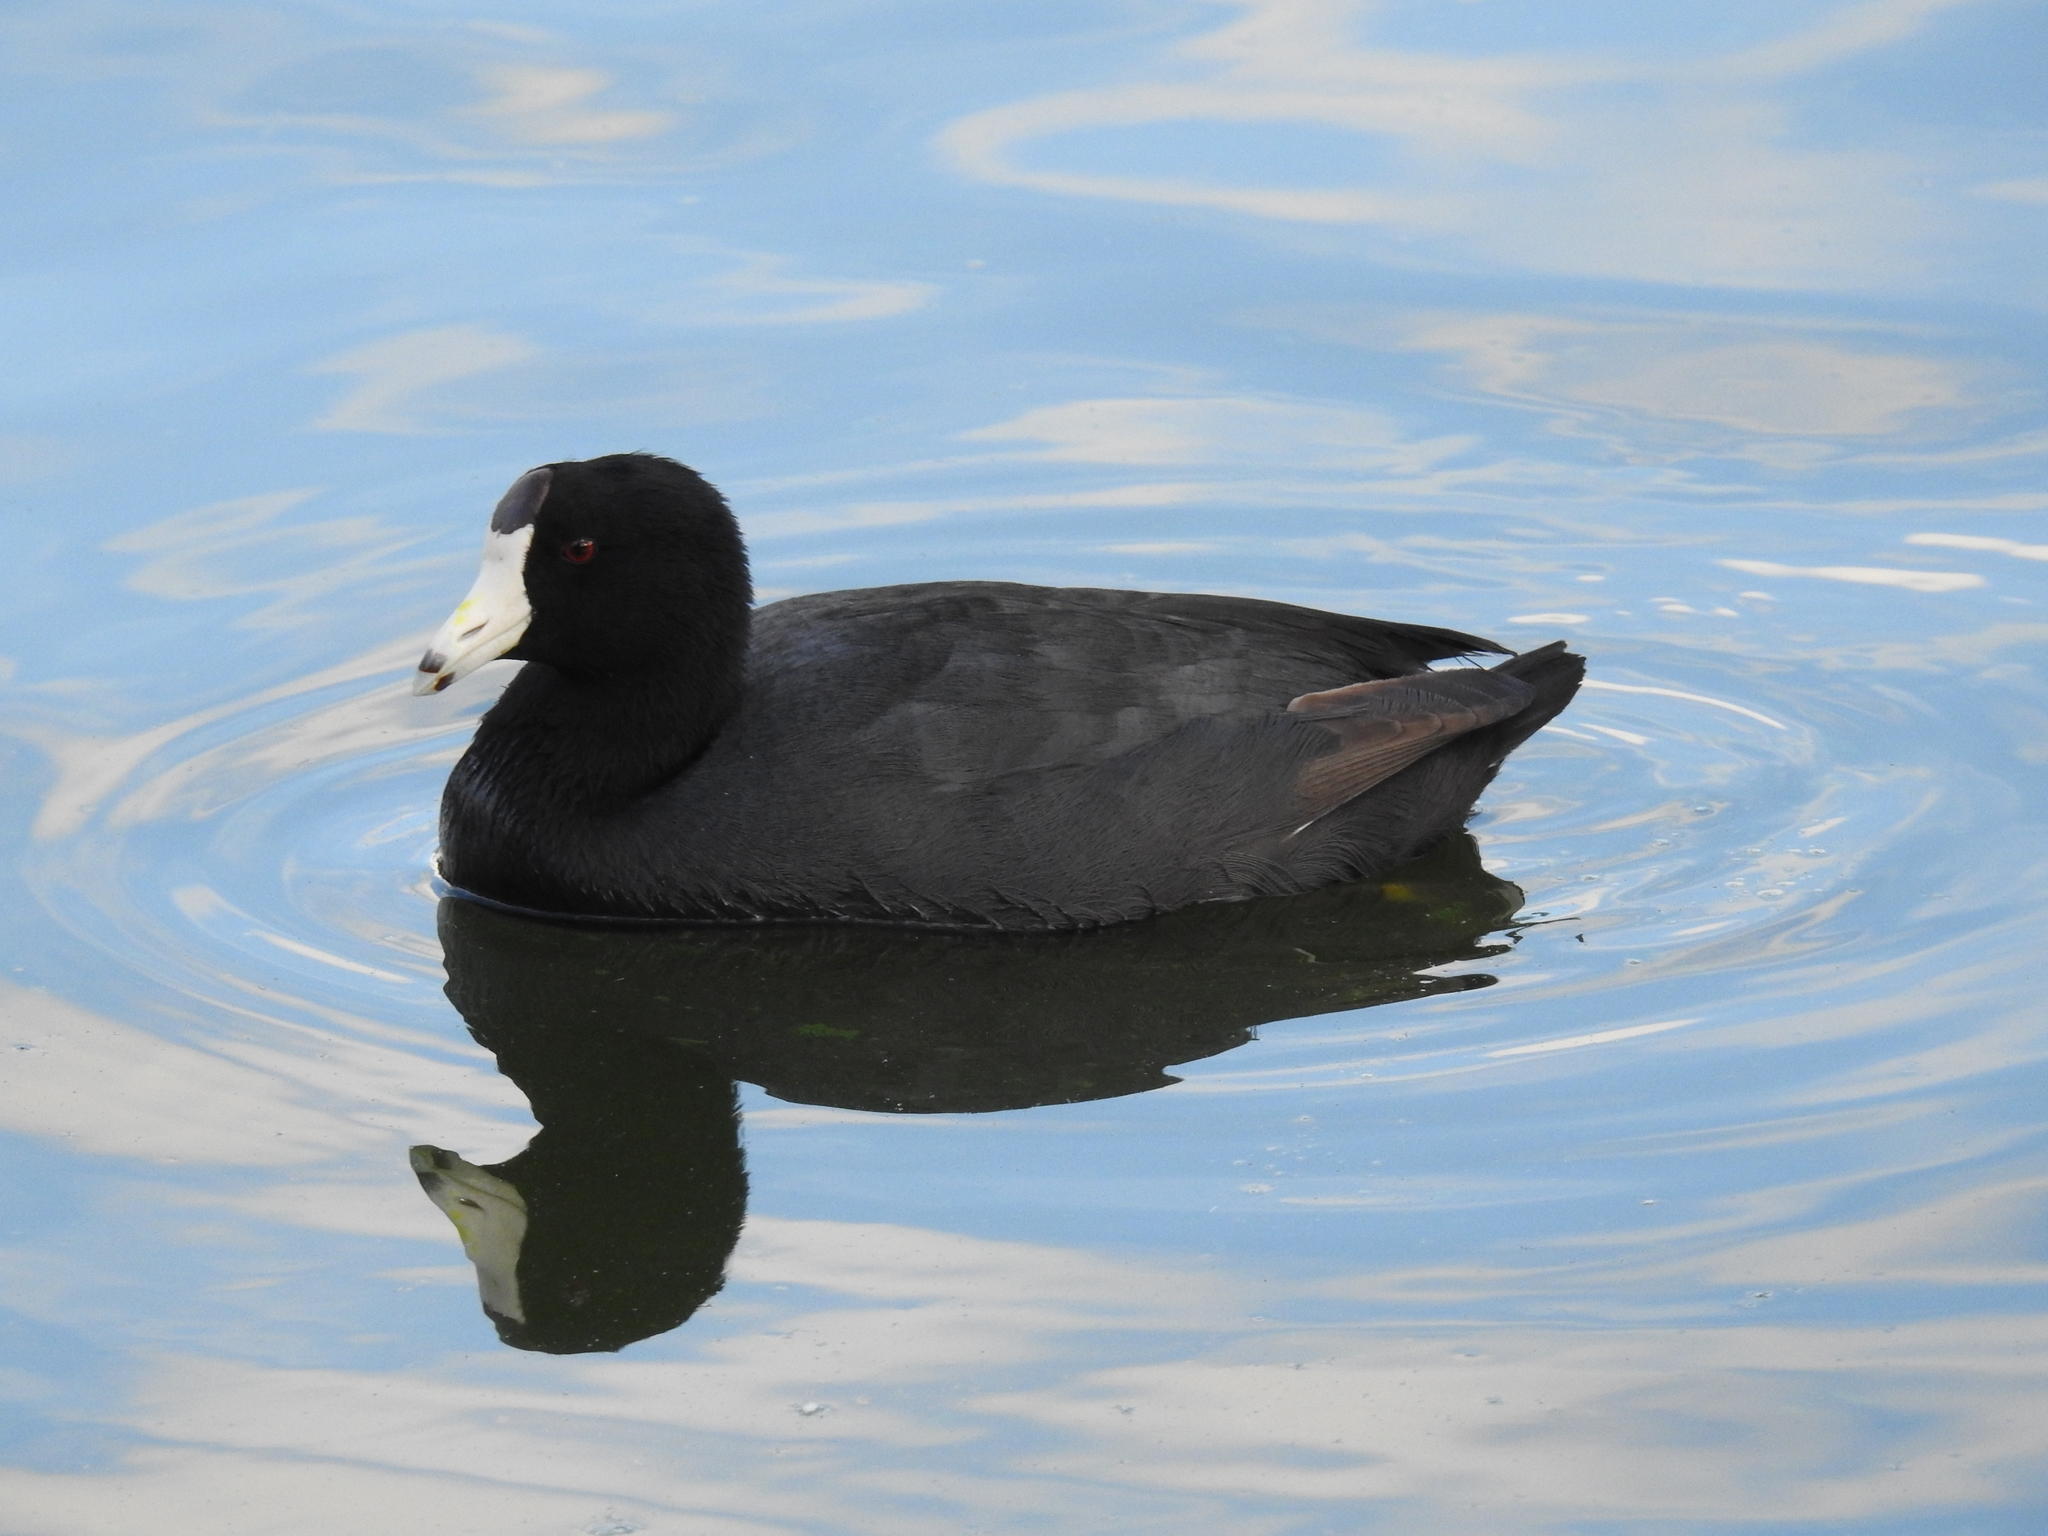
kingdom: Animalia
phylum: Chordata
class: Aves
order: Gruiformes
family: Rallidae
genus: Fulica
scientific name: Fulica americana
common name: American coot
